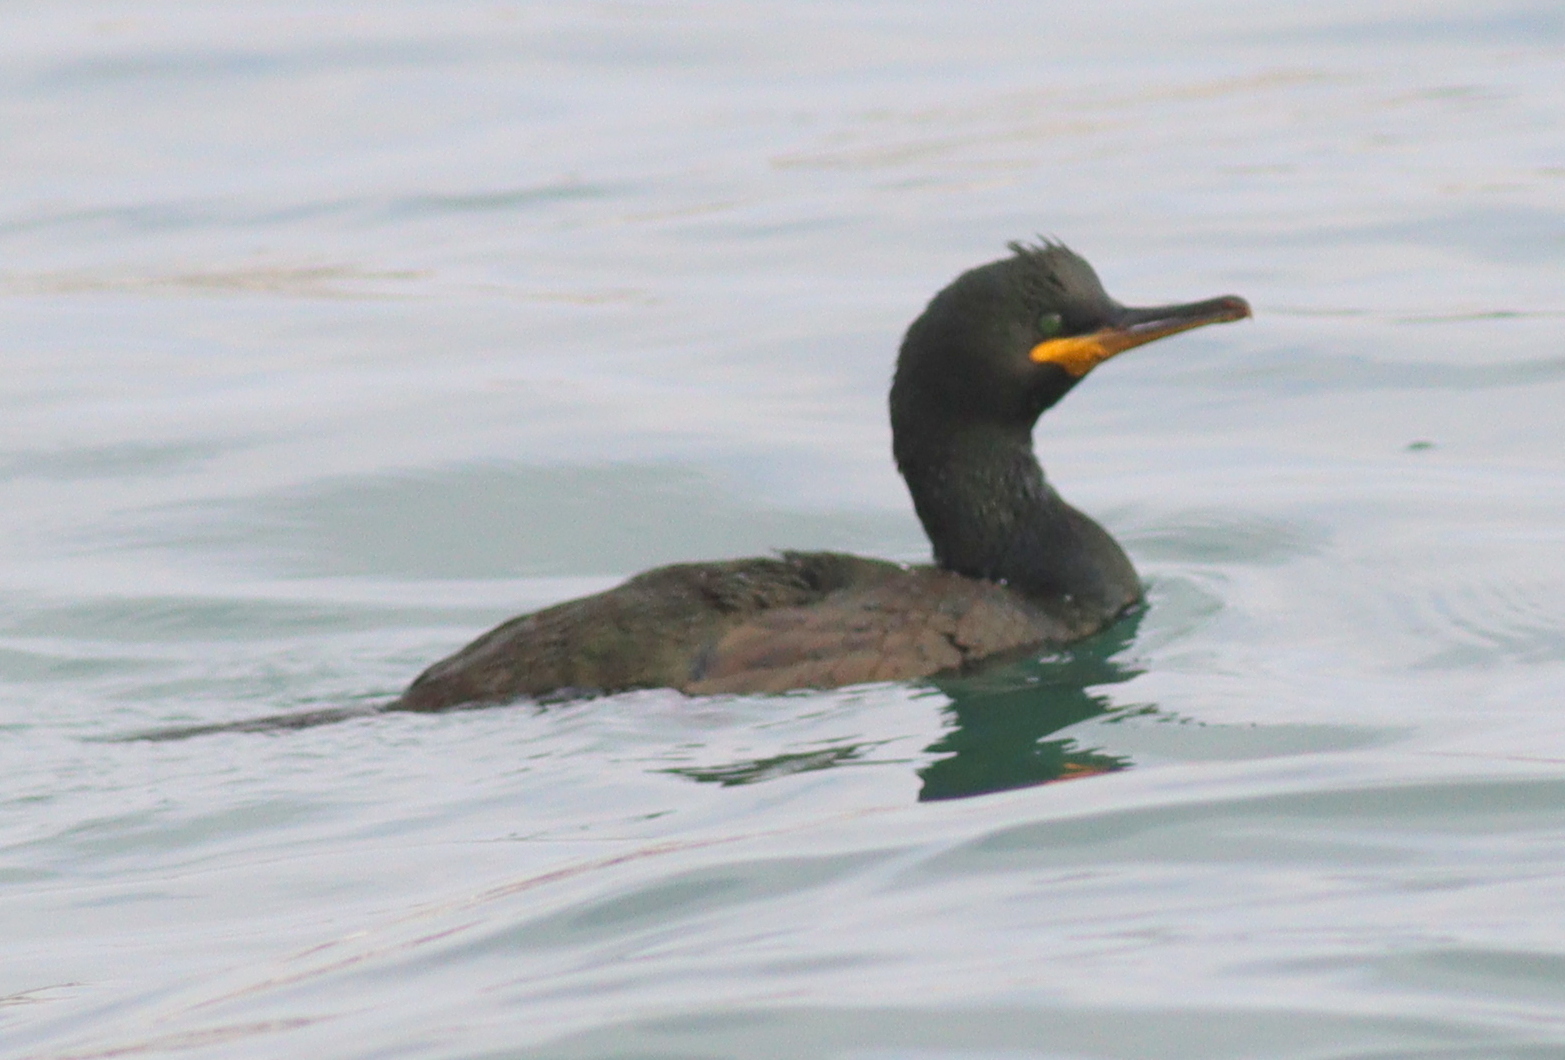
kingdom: Animalia
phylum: Chordata
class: Aves
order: Suliformes
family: Phalacrocoracidae
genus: Phalacrocorax
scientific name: Phalacrocorax aristotelis
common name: European shag
